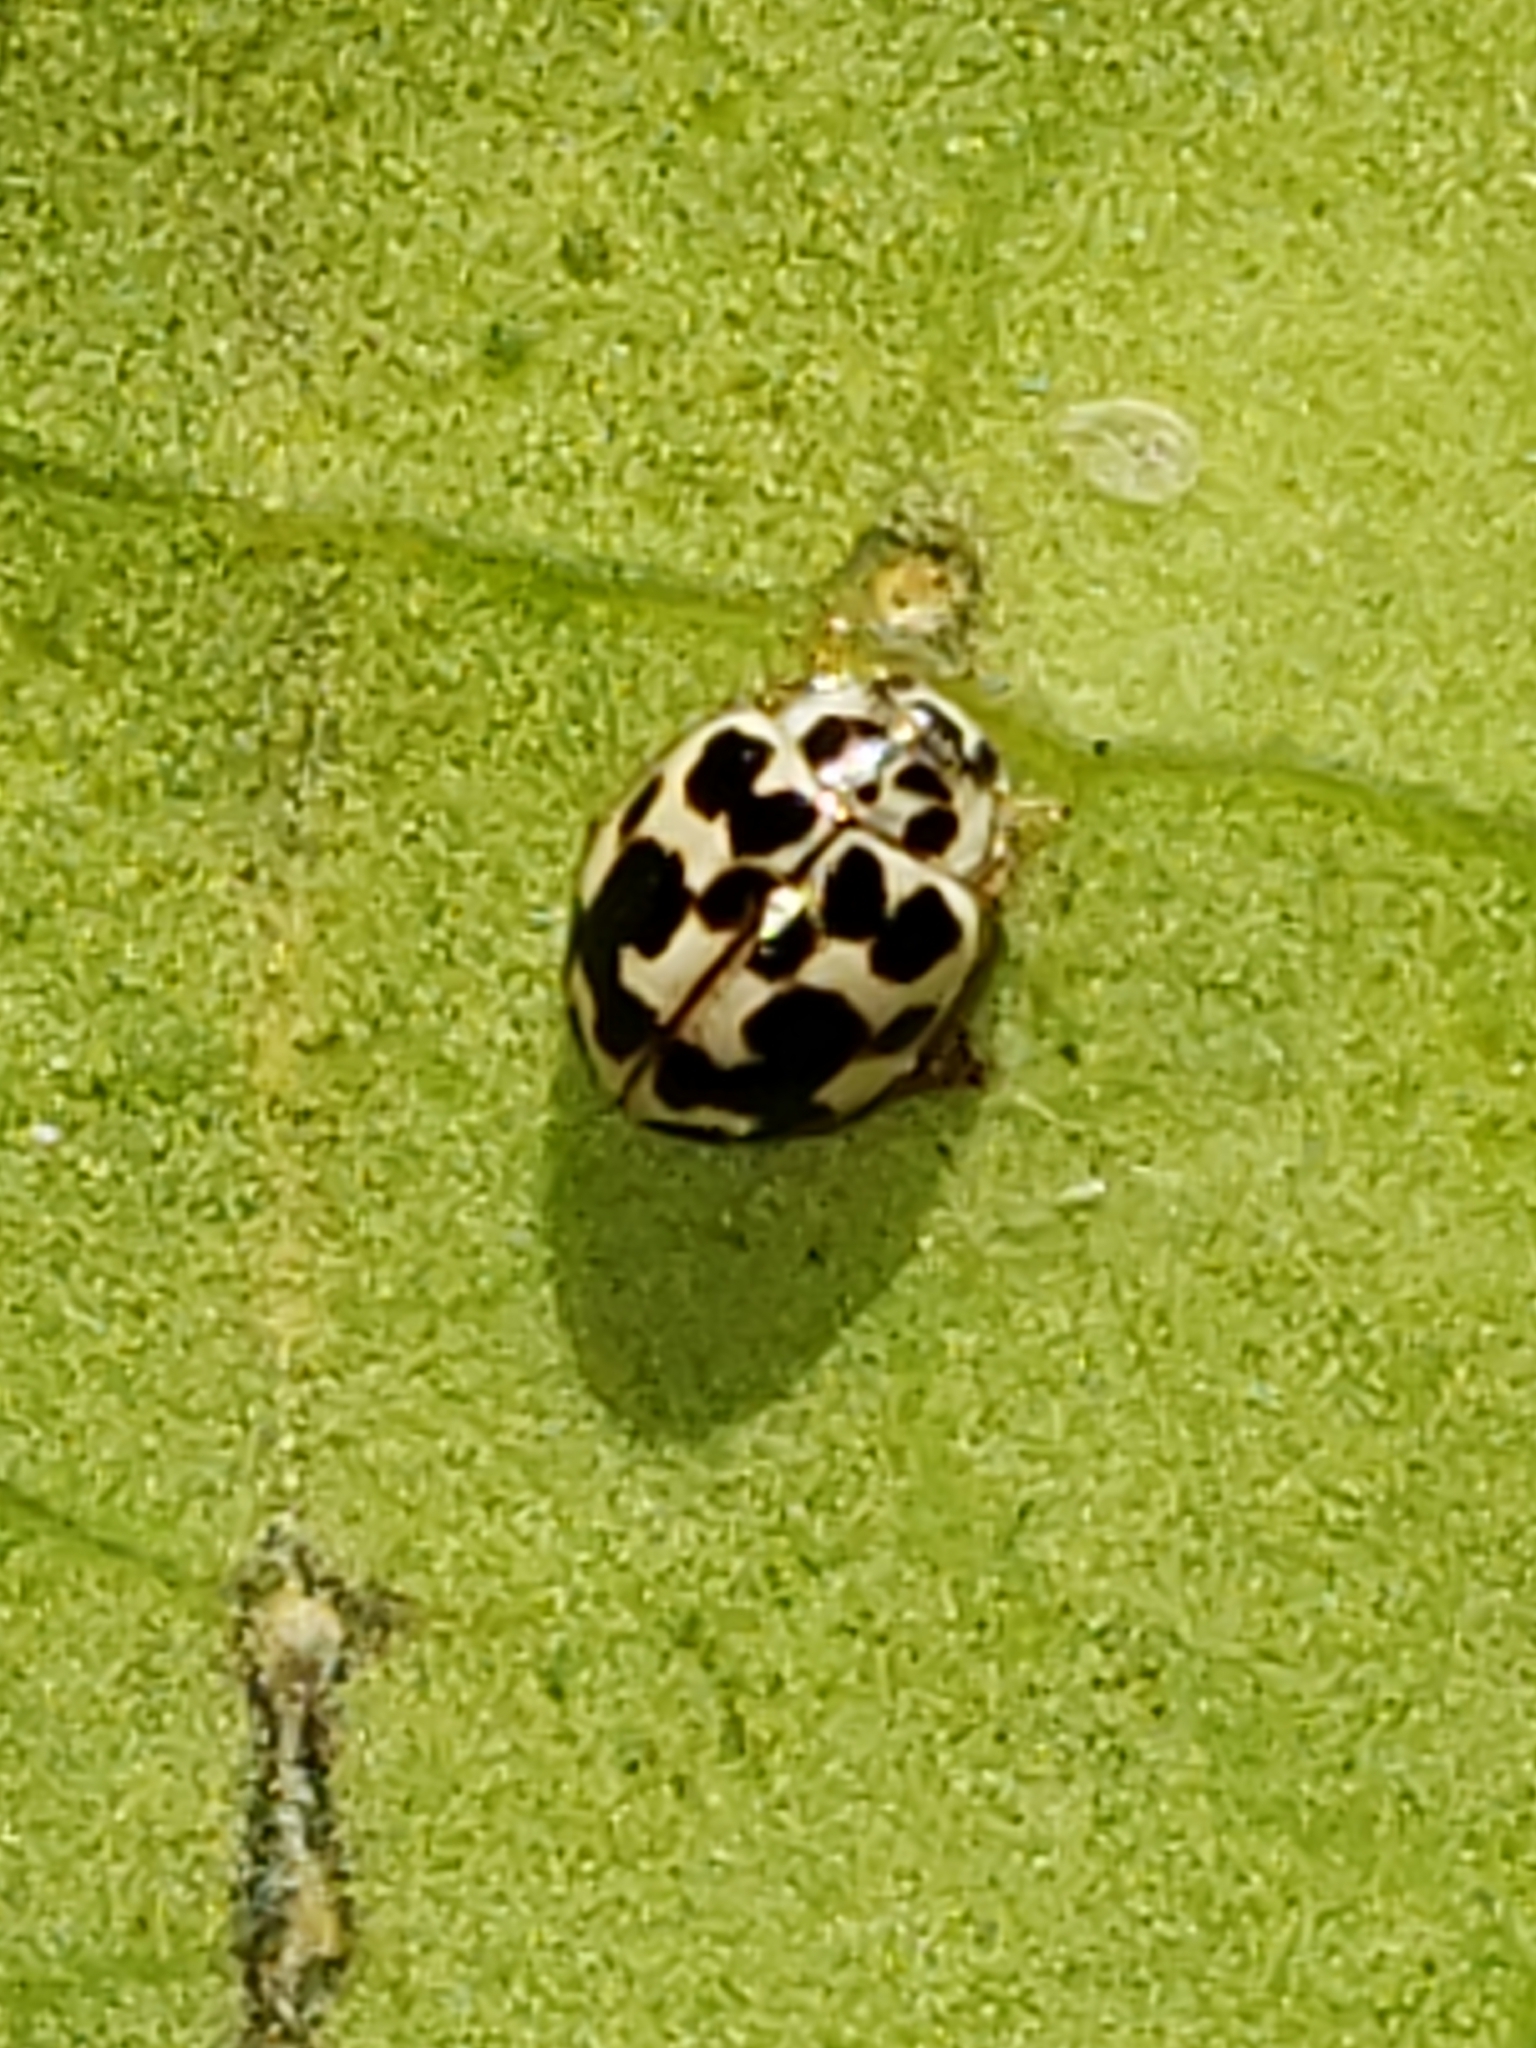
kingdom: Animalia
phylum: Arthropoda
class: Insecta
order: Coleoptera
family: Coccinellidae
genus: Psyllobora
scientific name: Psyllobora vigintimaculata
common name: Ladybird beetle
